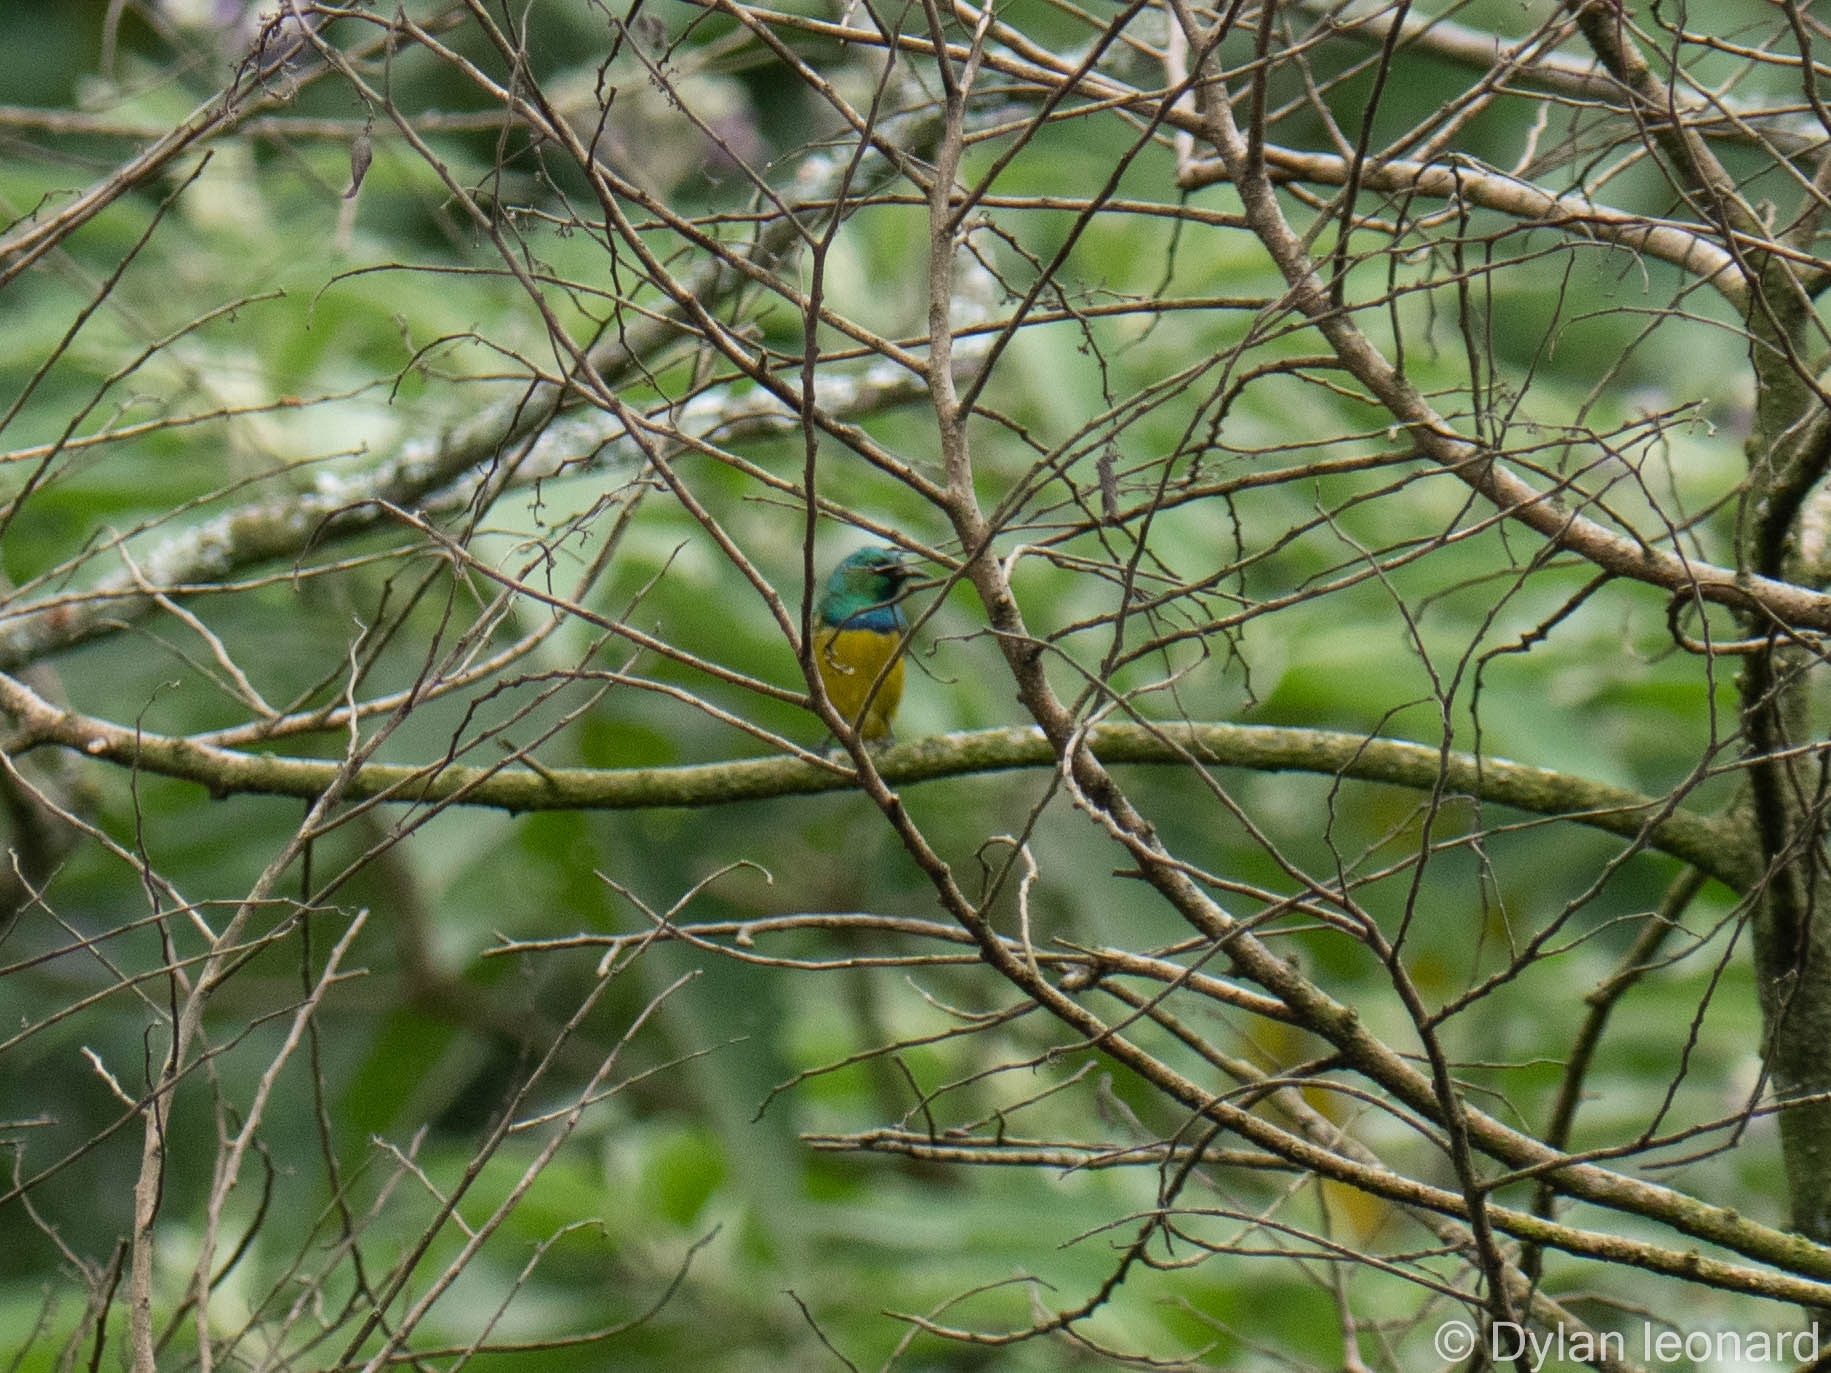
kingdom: Animalia
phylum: Chordata
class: Aves
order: Passeriformes
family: Nectariniidae
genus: Hedydipna
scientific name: Hedydipna collaris
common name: Collared sunbird
